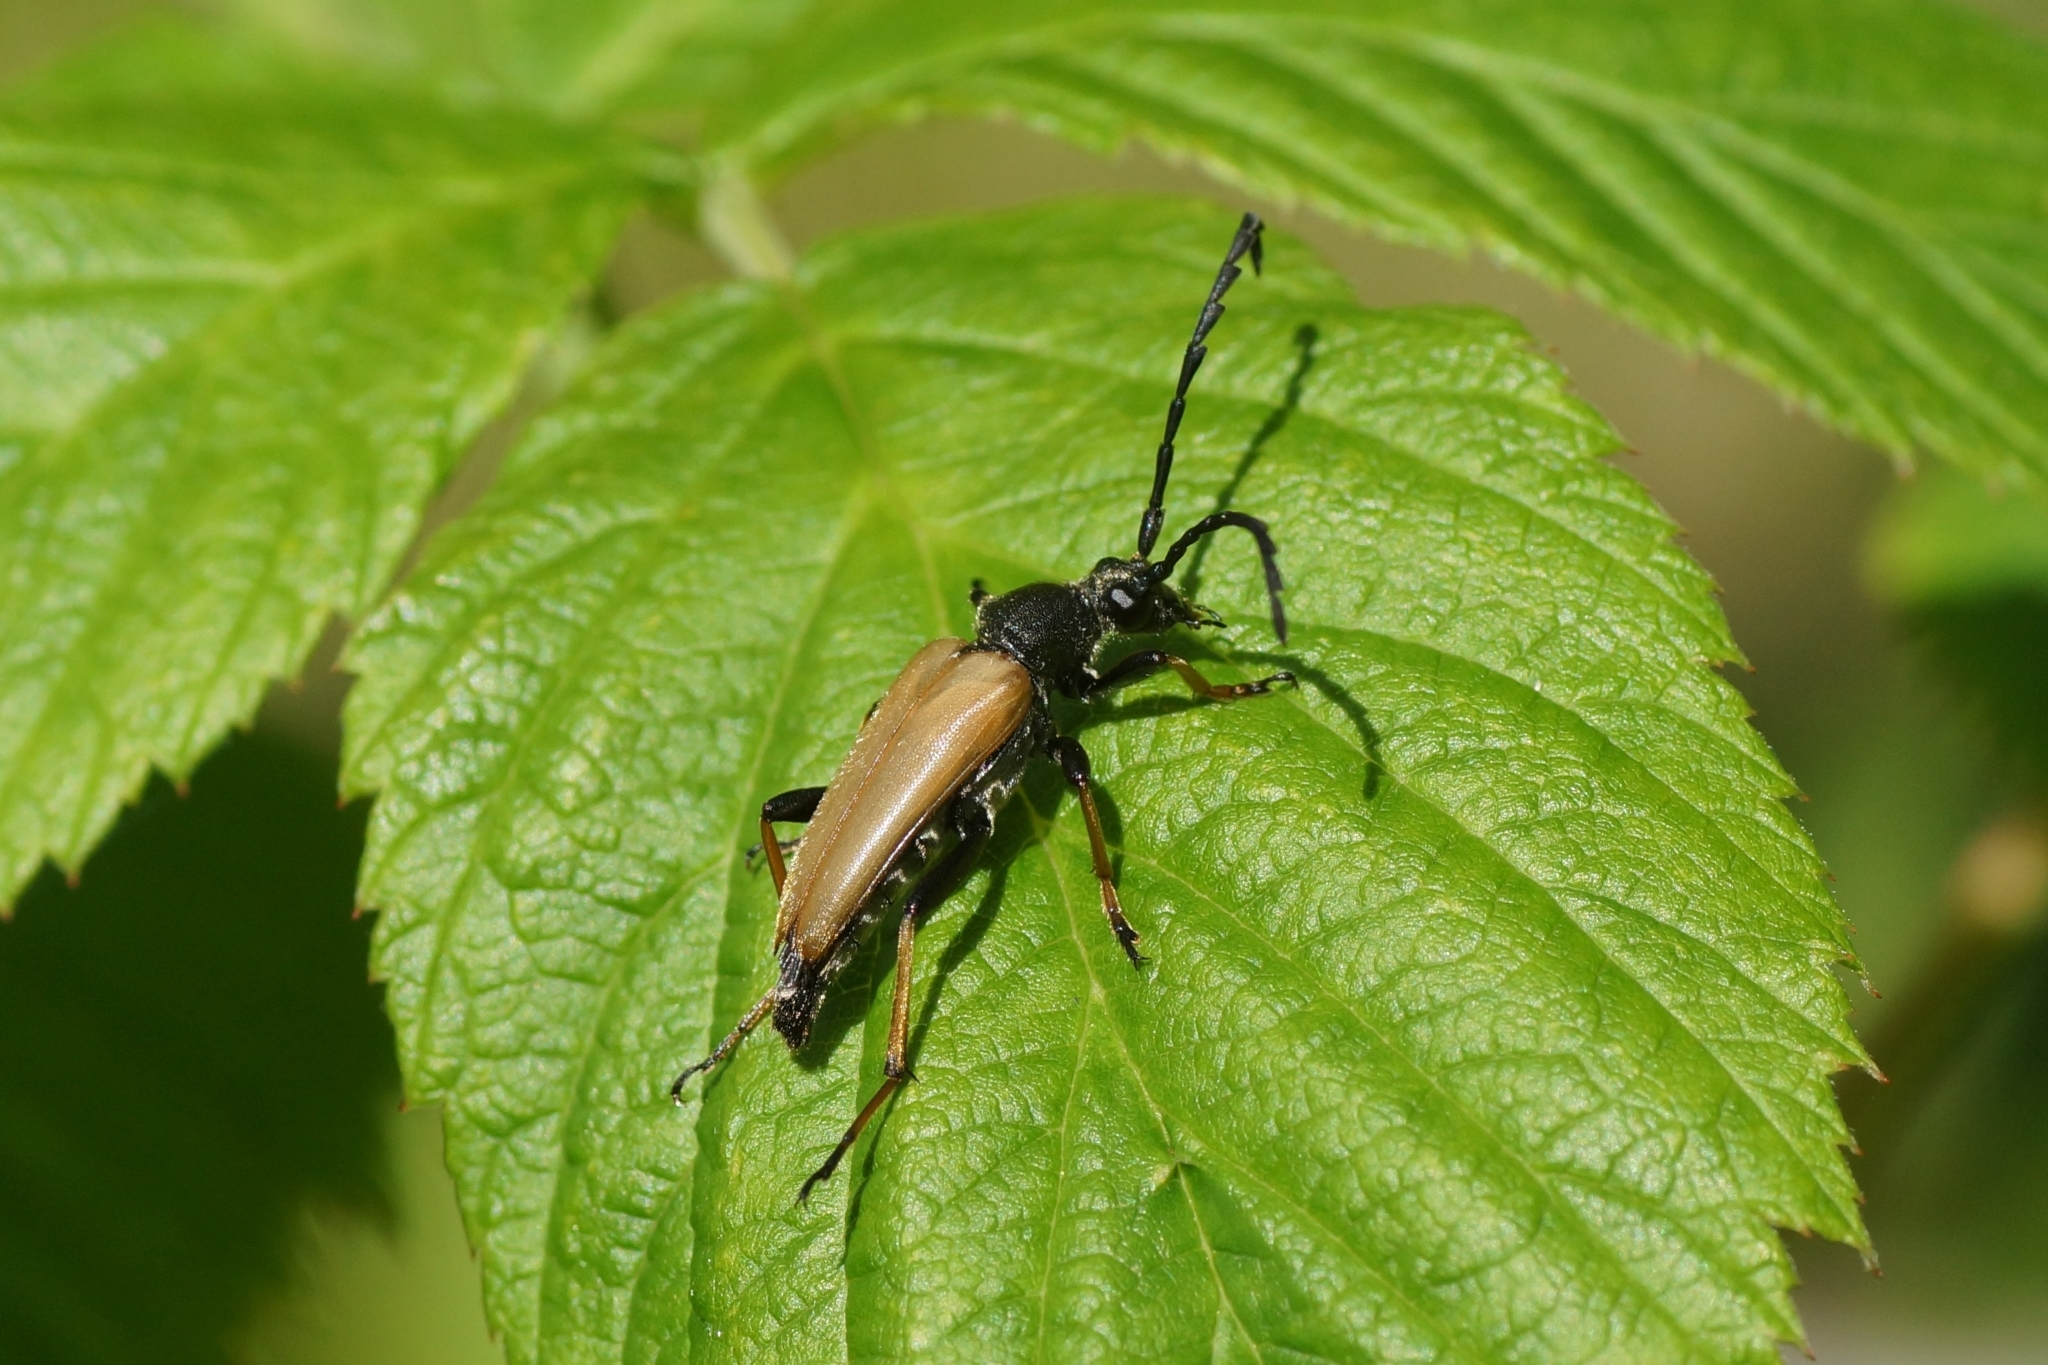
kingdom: Animalia
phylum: Arthropoda
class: Insecta
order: Coleoptera
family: Cerambycidae
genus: Stictoleptura
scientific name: Stictoleptura rubra
